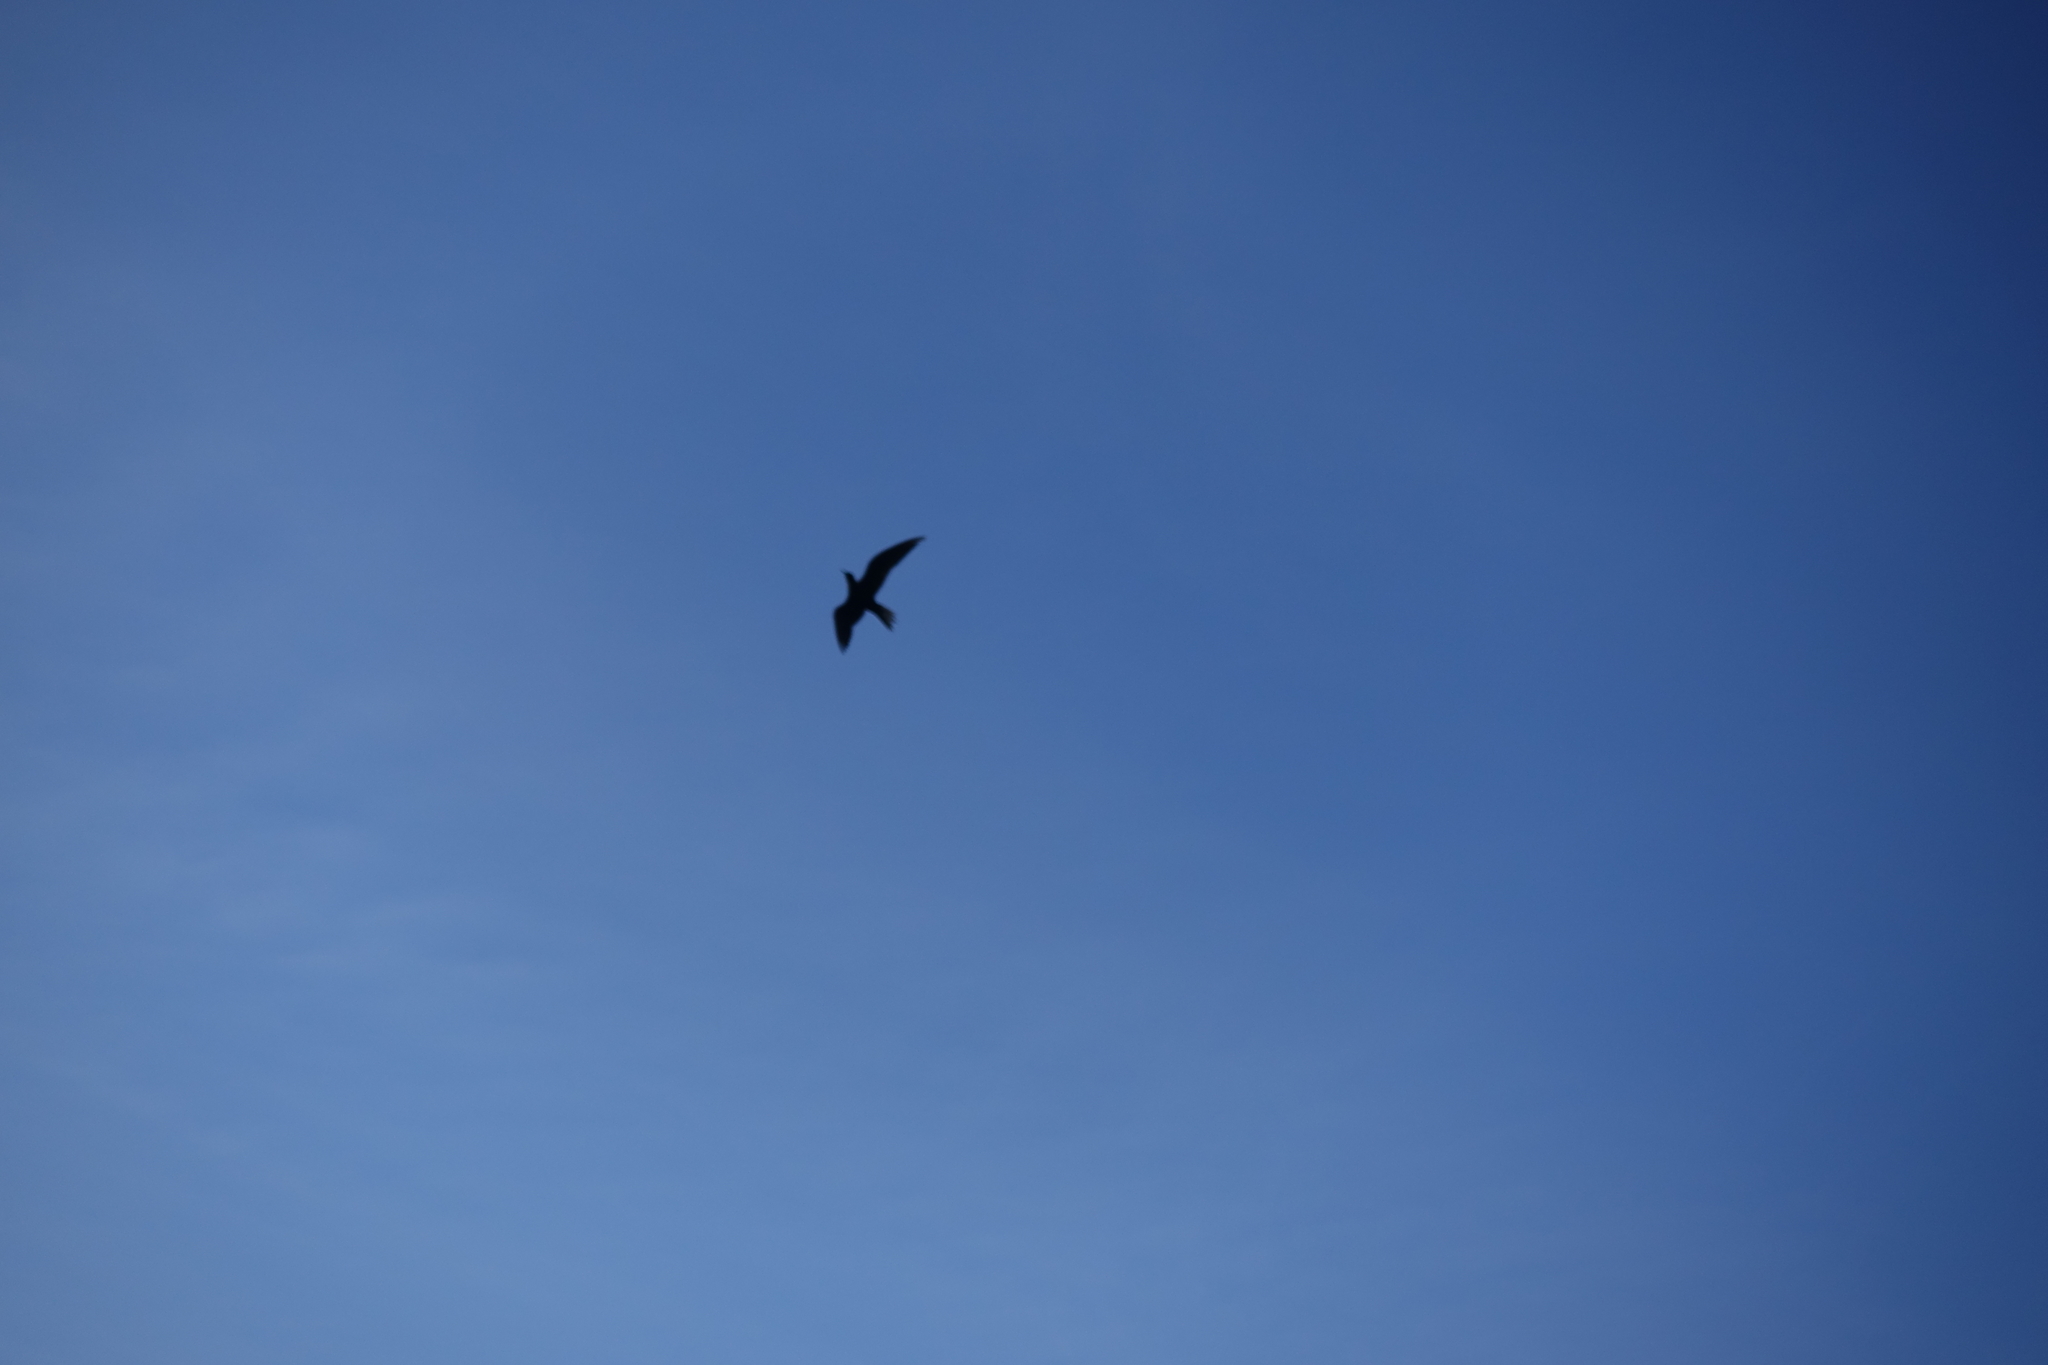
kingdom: Animalia
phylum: Chordata
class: Aves
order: Charadriiformes
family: Laridae
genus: Anous
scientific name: Anous minutus
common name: Black noddy
